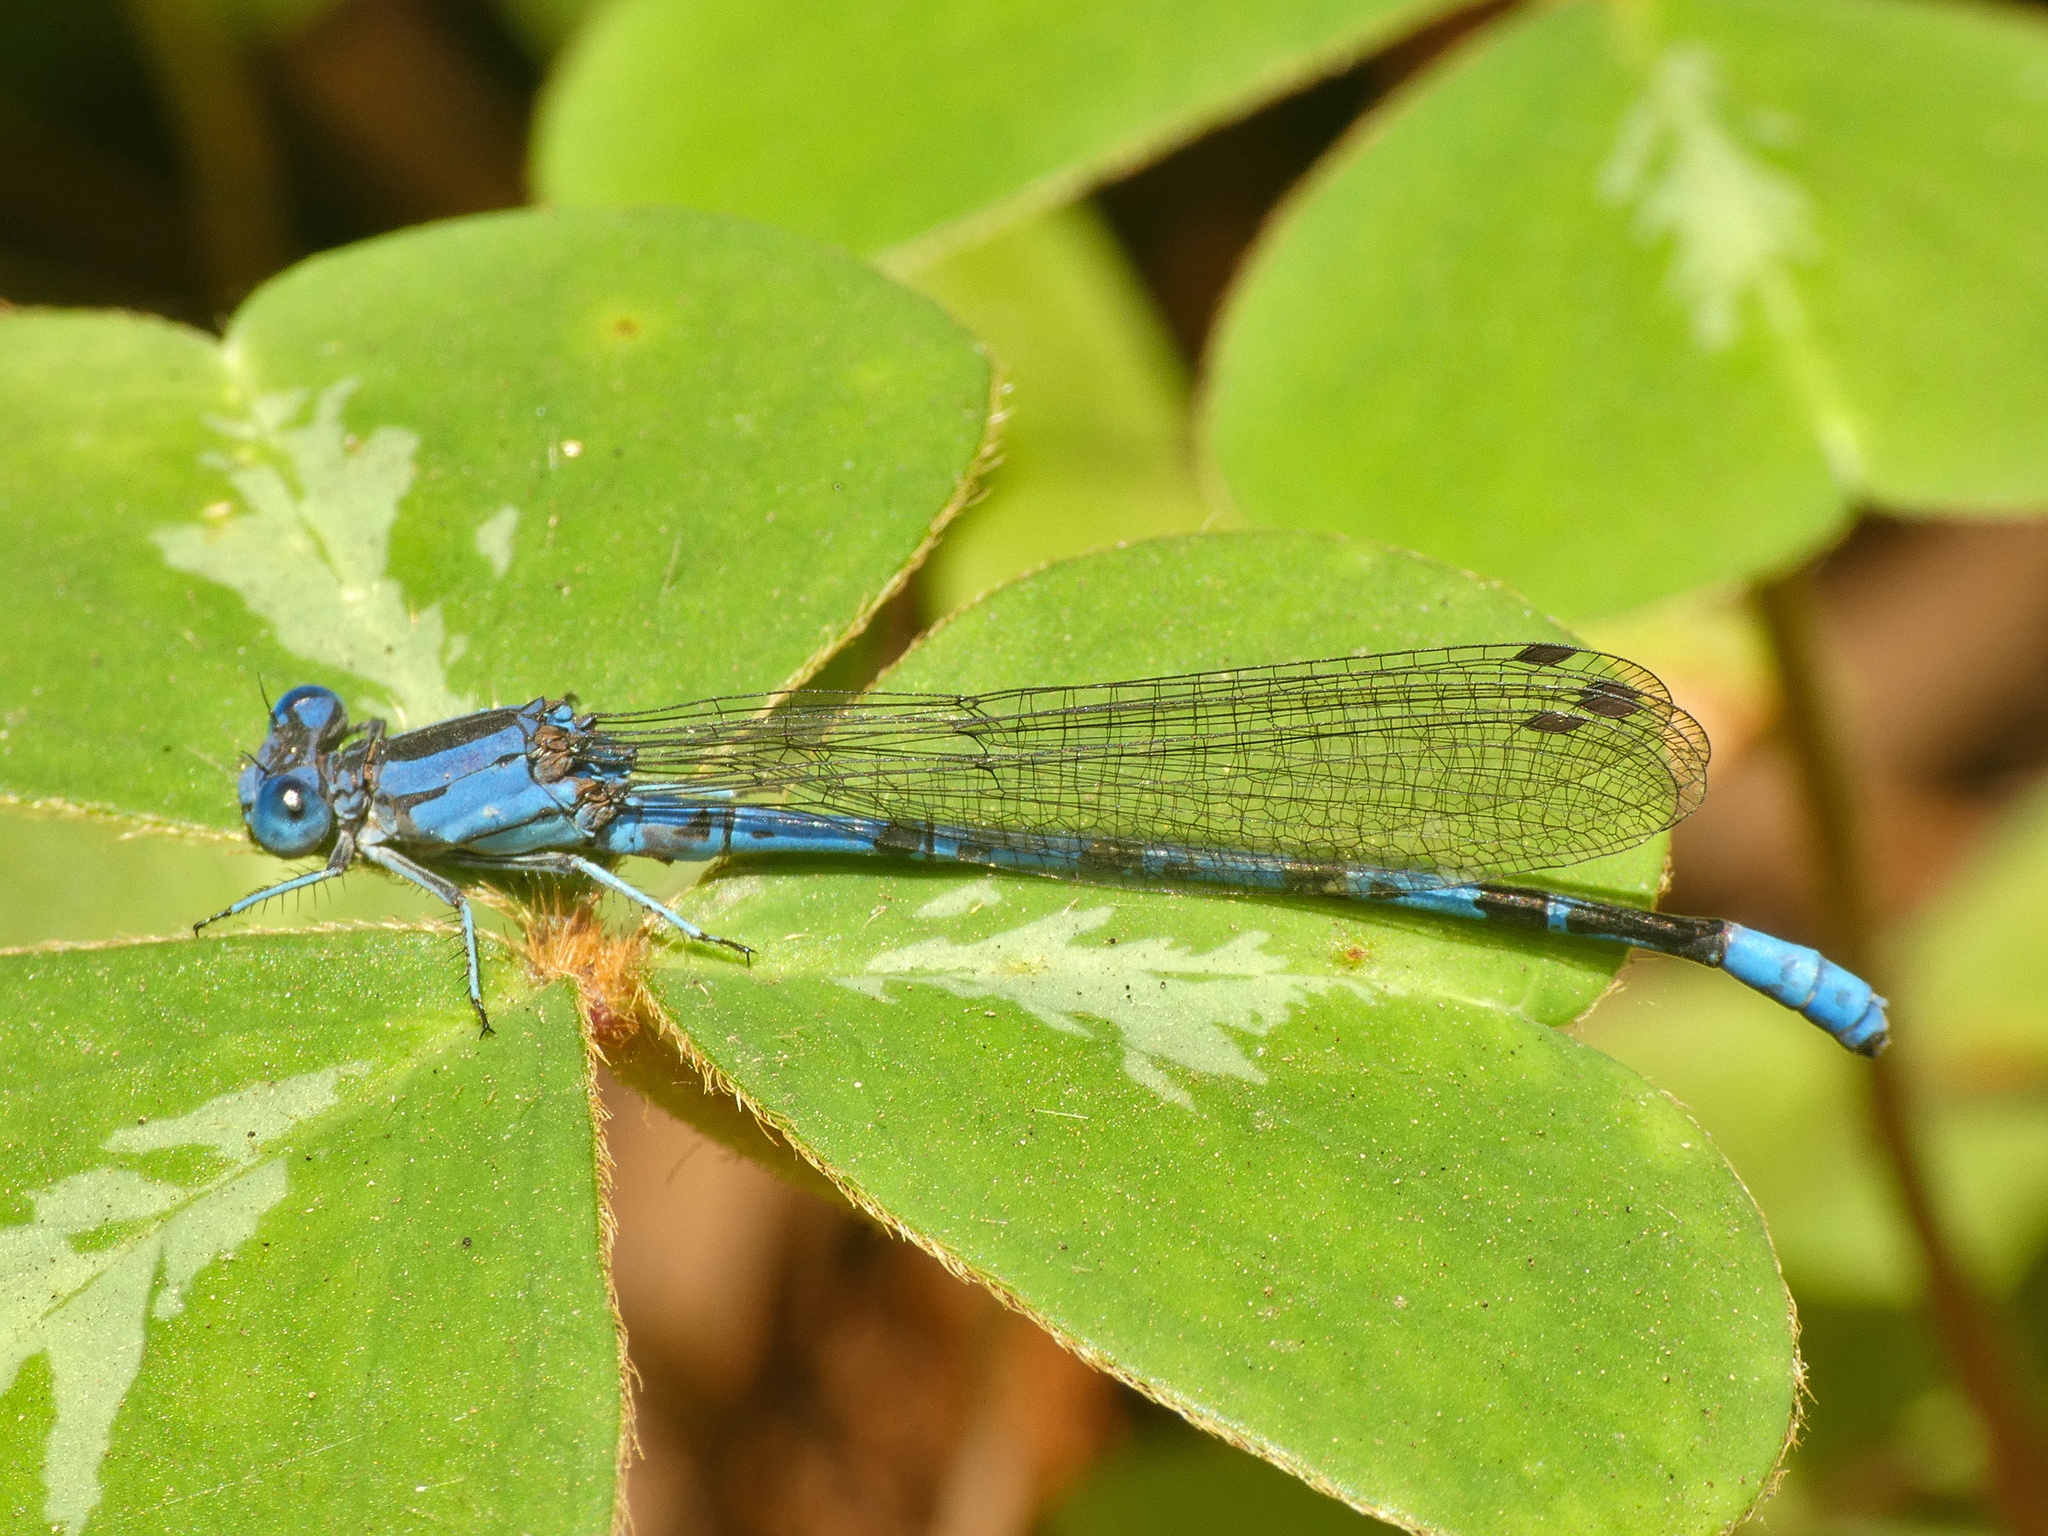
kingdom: Animalia
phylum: Arthropoda
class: Insecta
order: Odonata
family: Coenagrionidae
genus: Argia
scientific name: Argia vivida
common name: Vivid dancer
